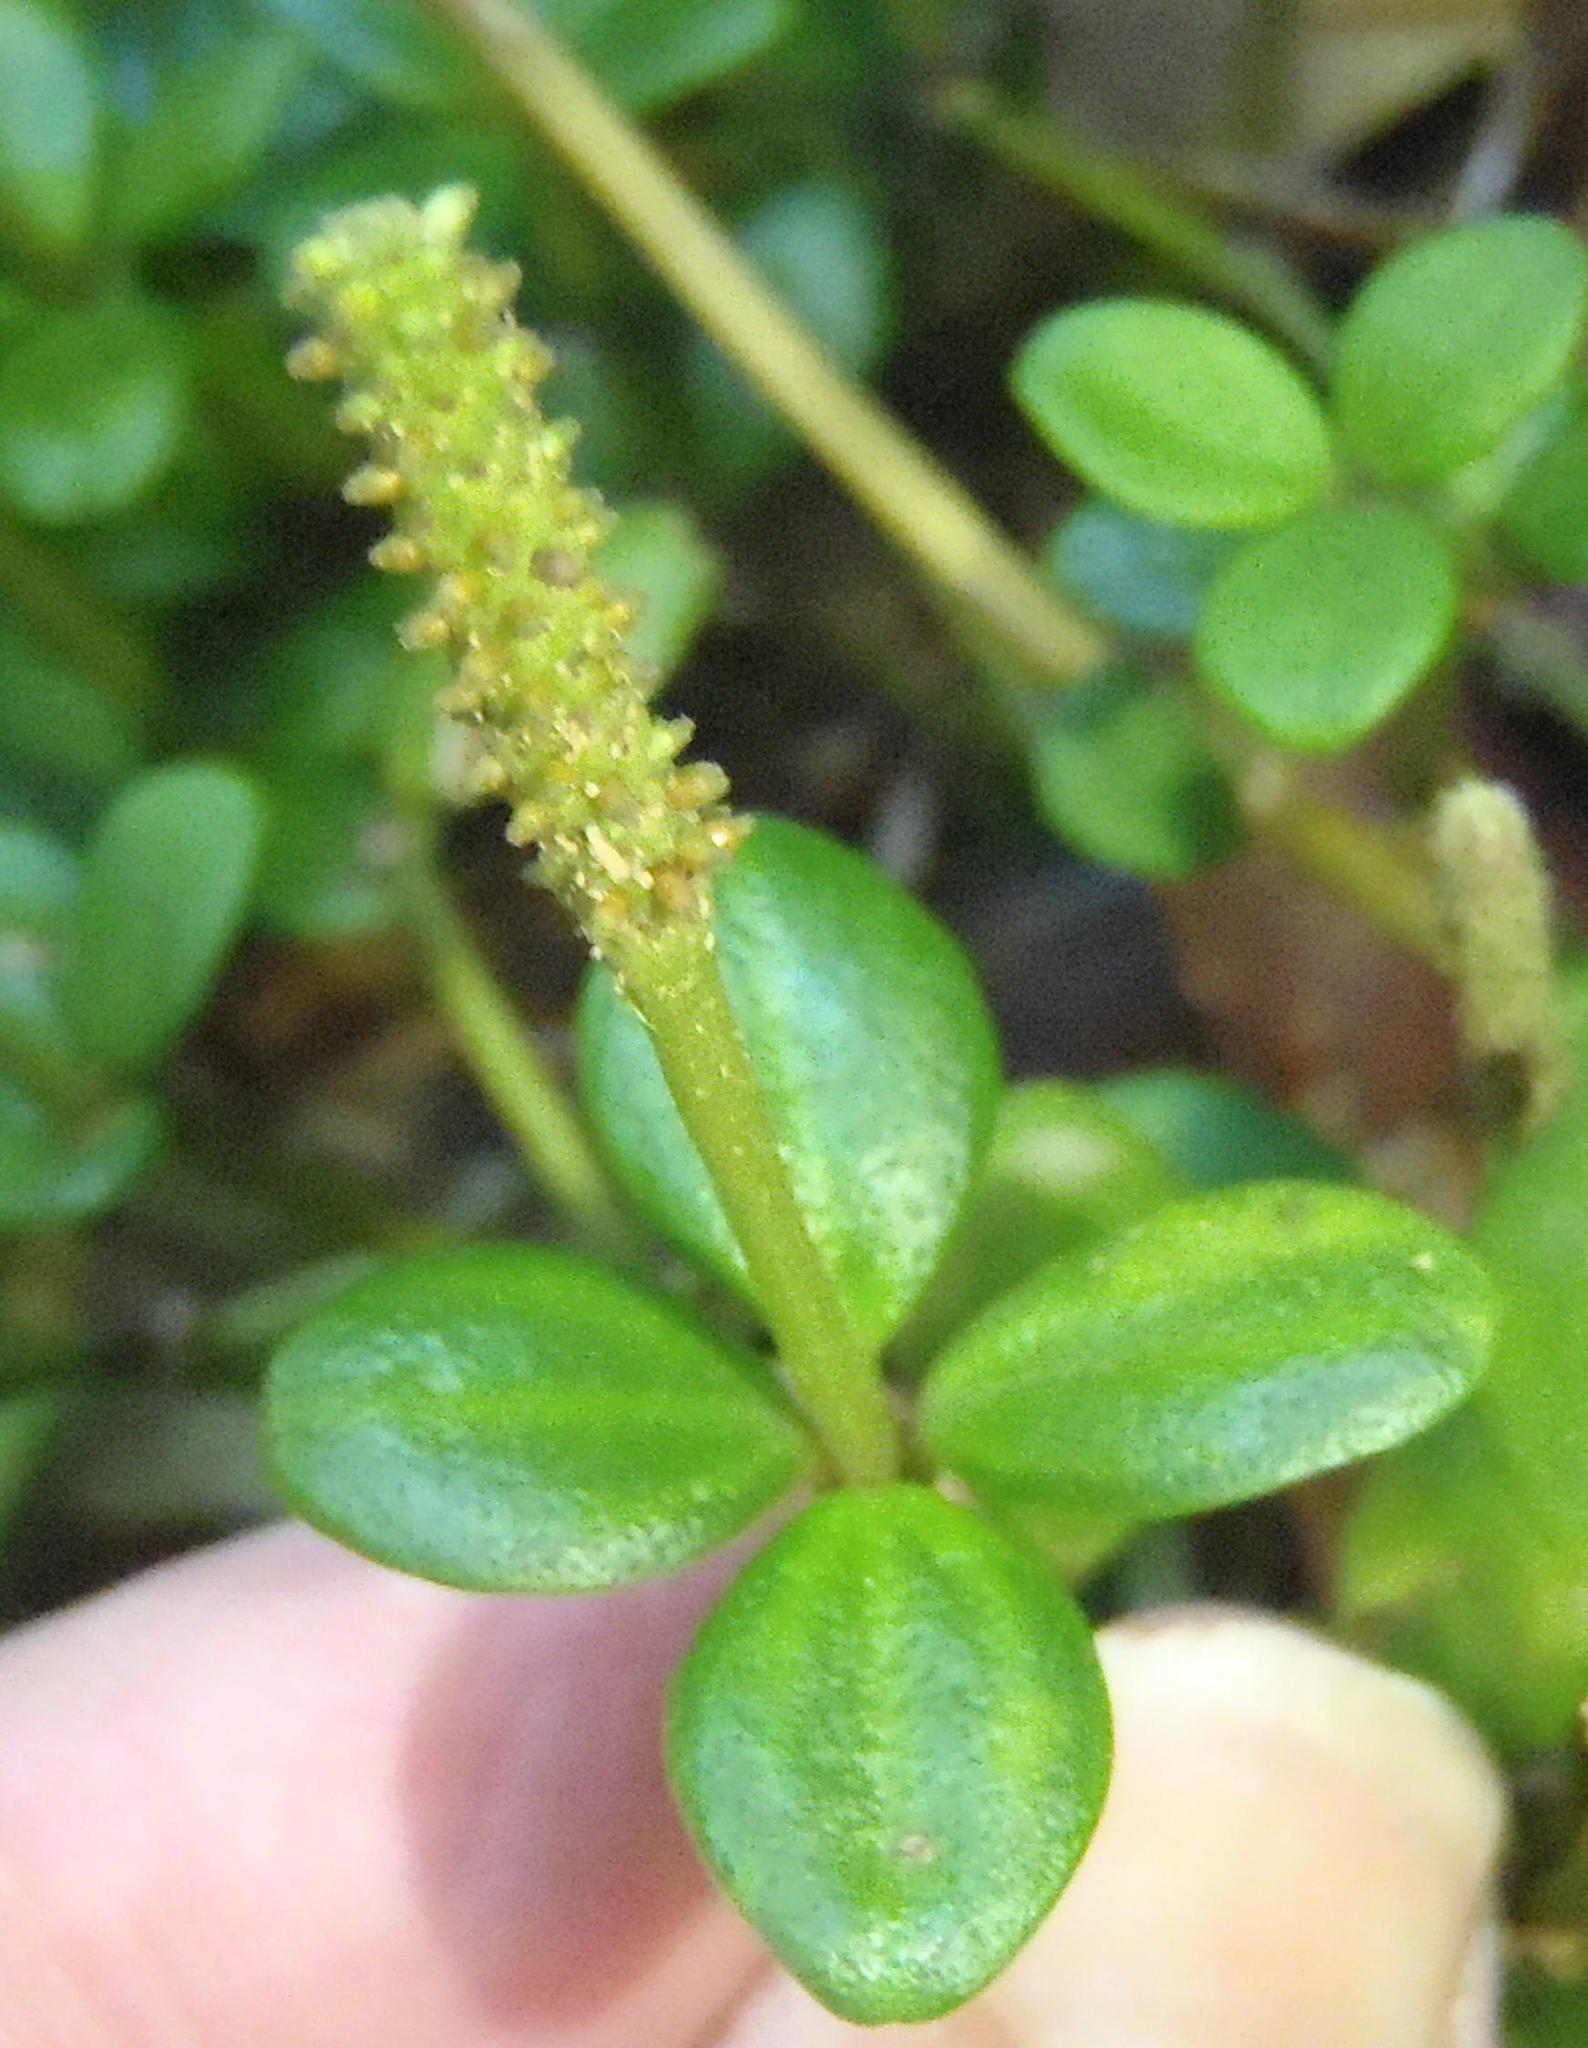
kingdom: Plantae
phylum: Tracheophyta
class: Magnoliopsida
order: Piperales
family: Piperaceae
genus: Peperomia
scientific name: Peperomia tetraphylla
